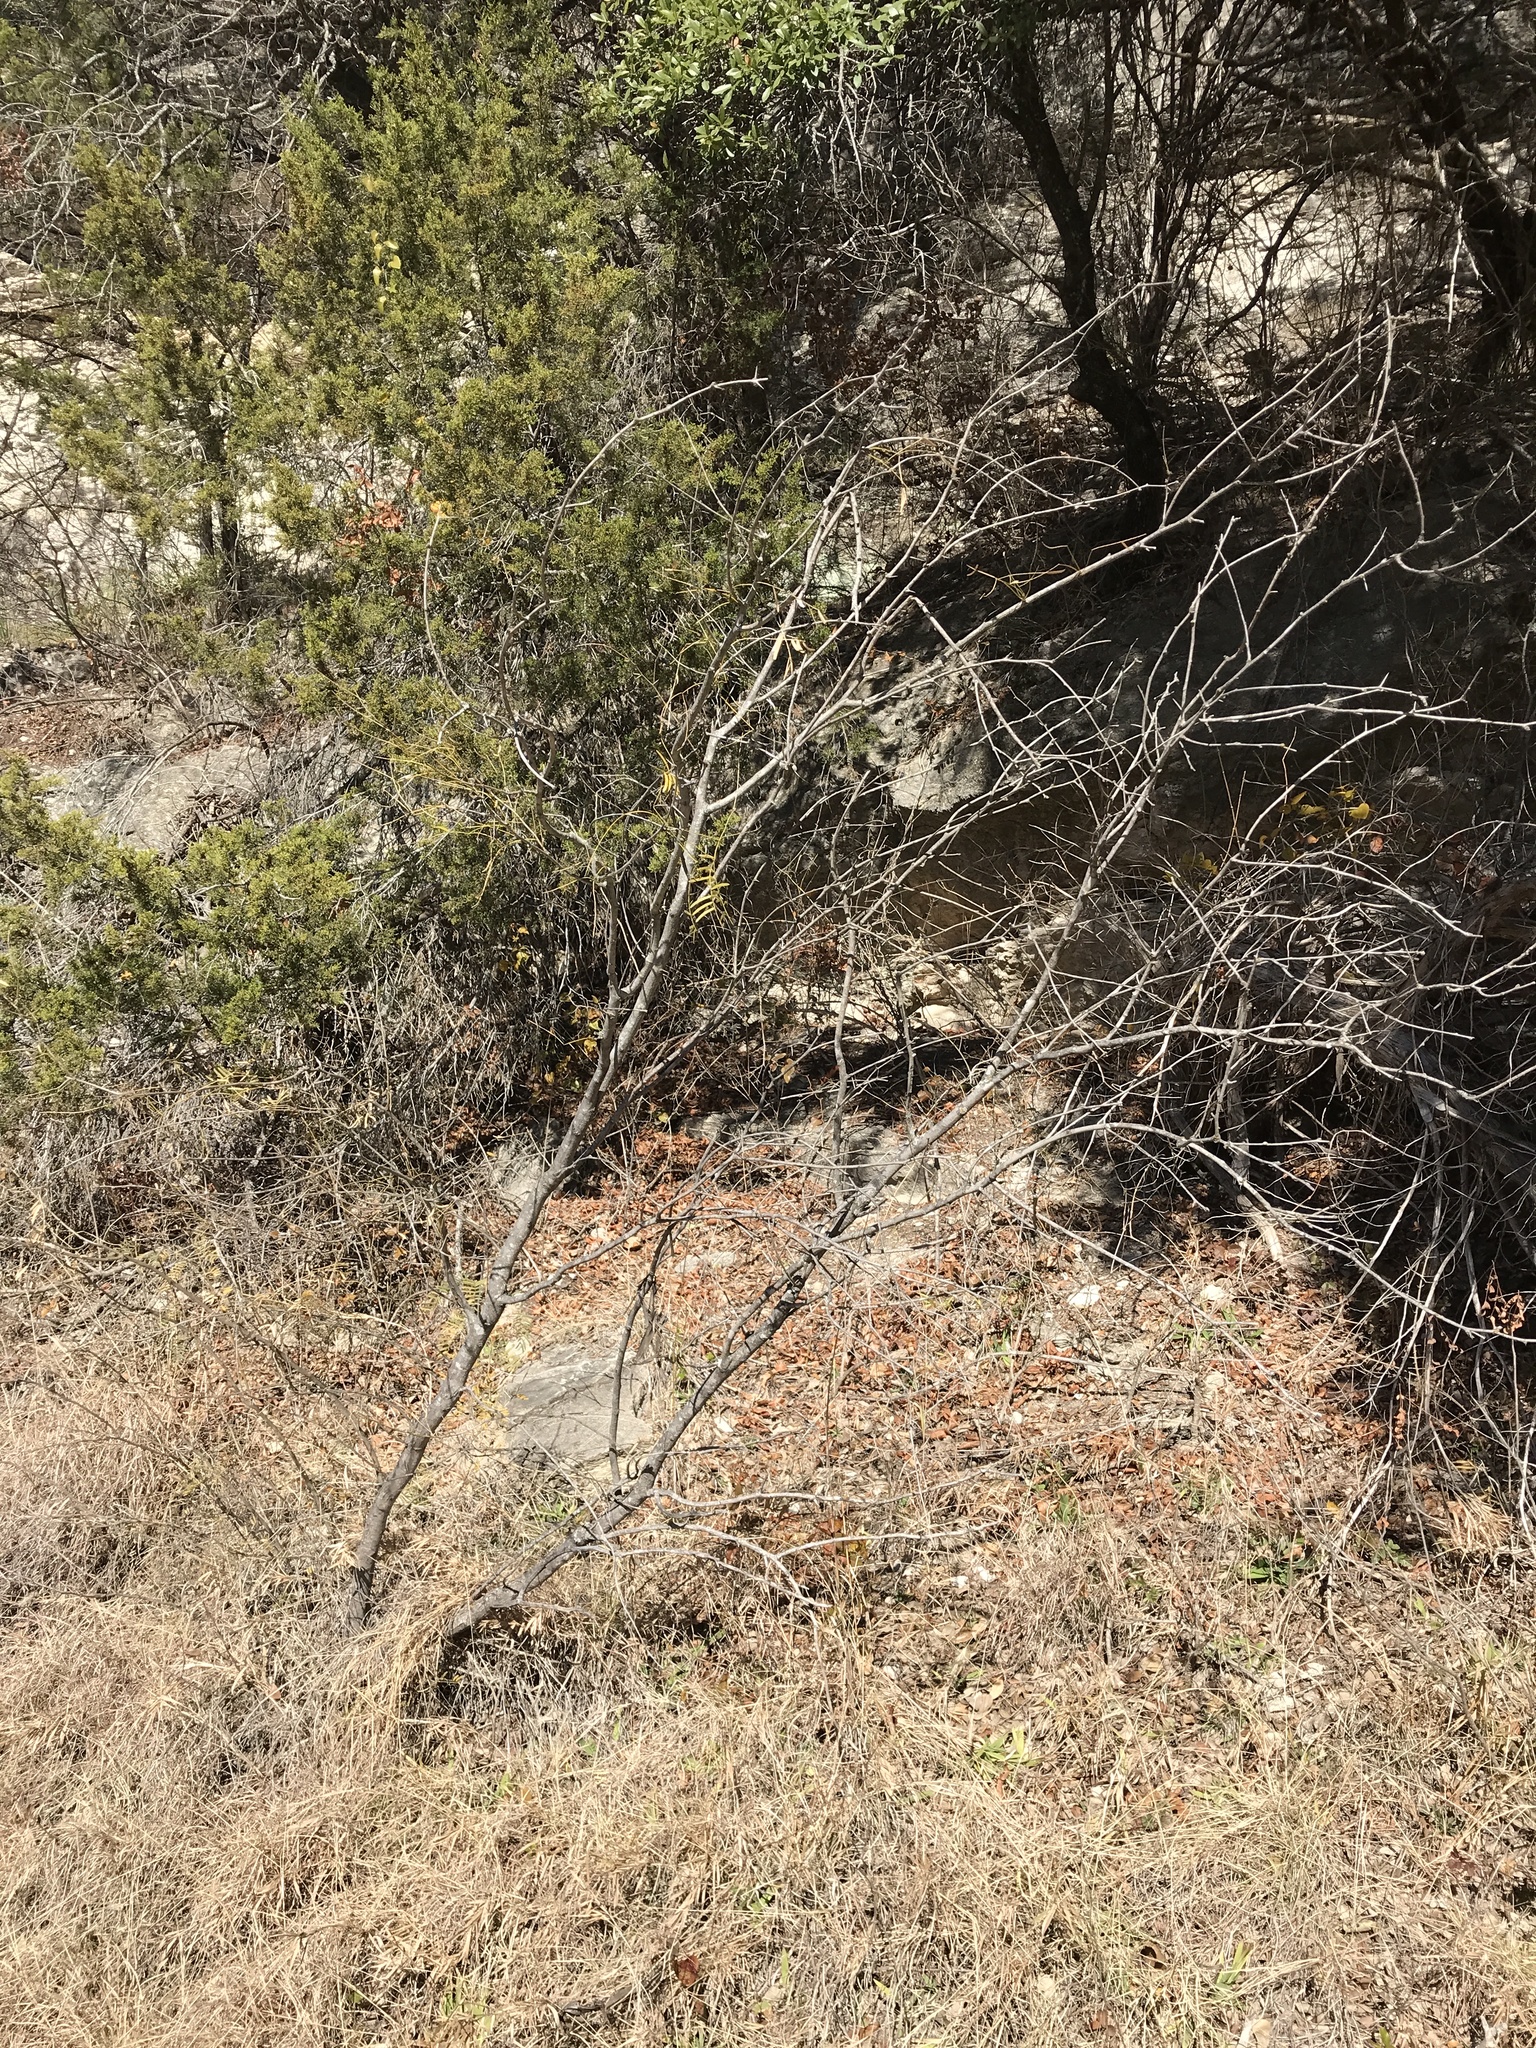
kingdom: Plantae
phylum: Tracheophyta
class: Magnoliopsida
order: Fabales
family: Fabaceae
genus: Prosopis
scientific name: Prosopis glandulosa
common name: Honey mesquite
